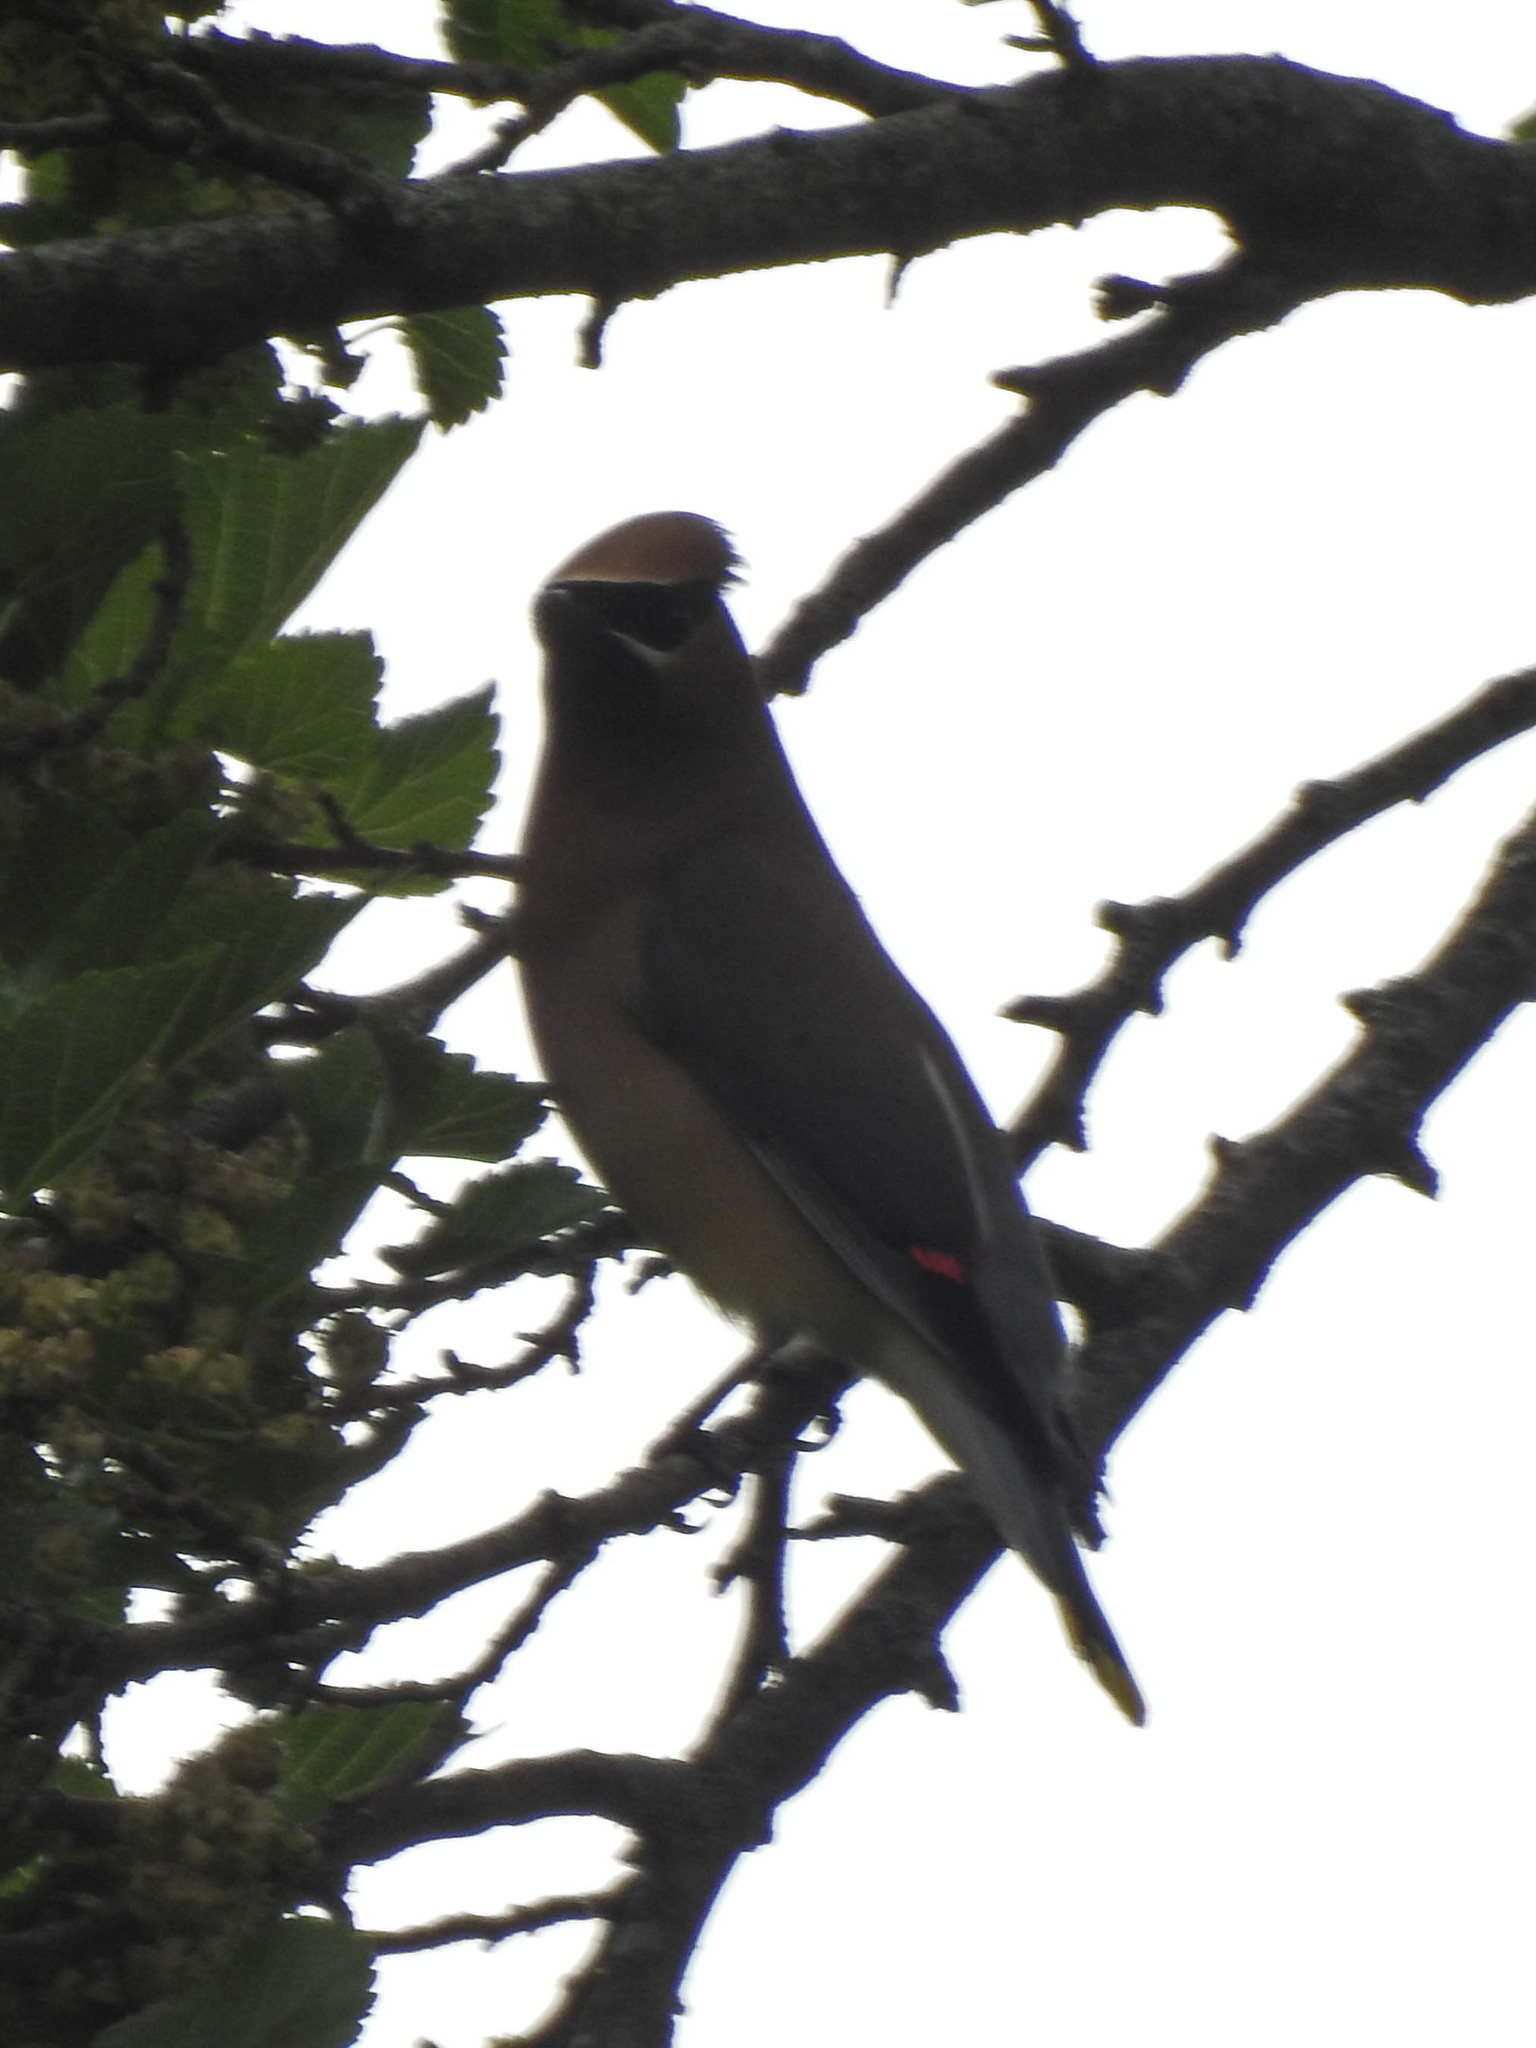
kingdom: Animalia
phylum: Chordata
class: Aves
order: Passeriformes
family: Bombycillidae
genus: Bombycilla
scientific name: Bombycilla cedrorum
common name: Cedar waxwing
